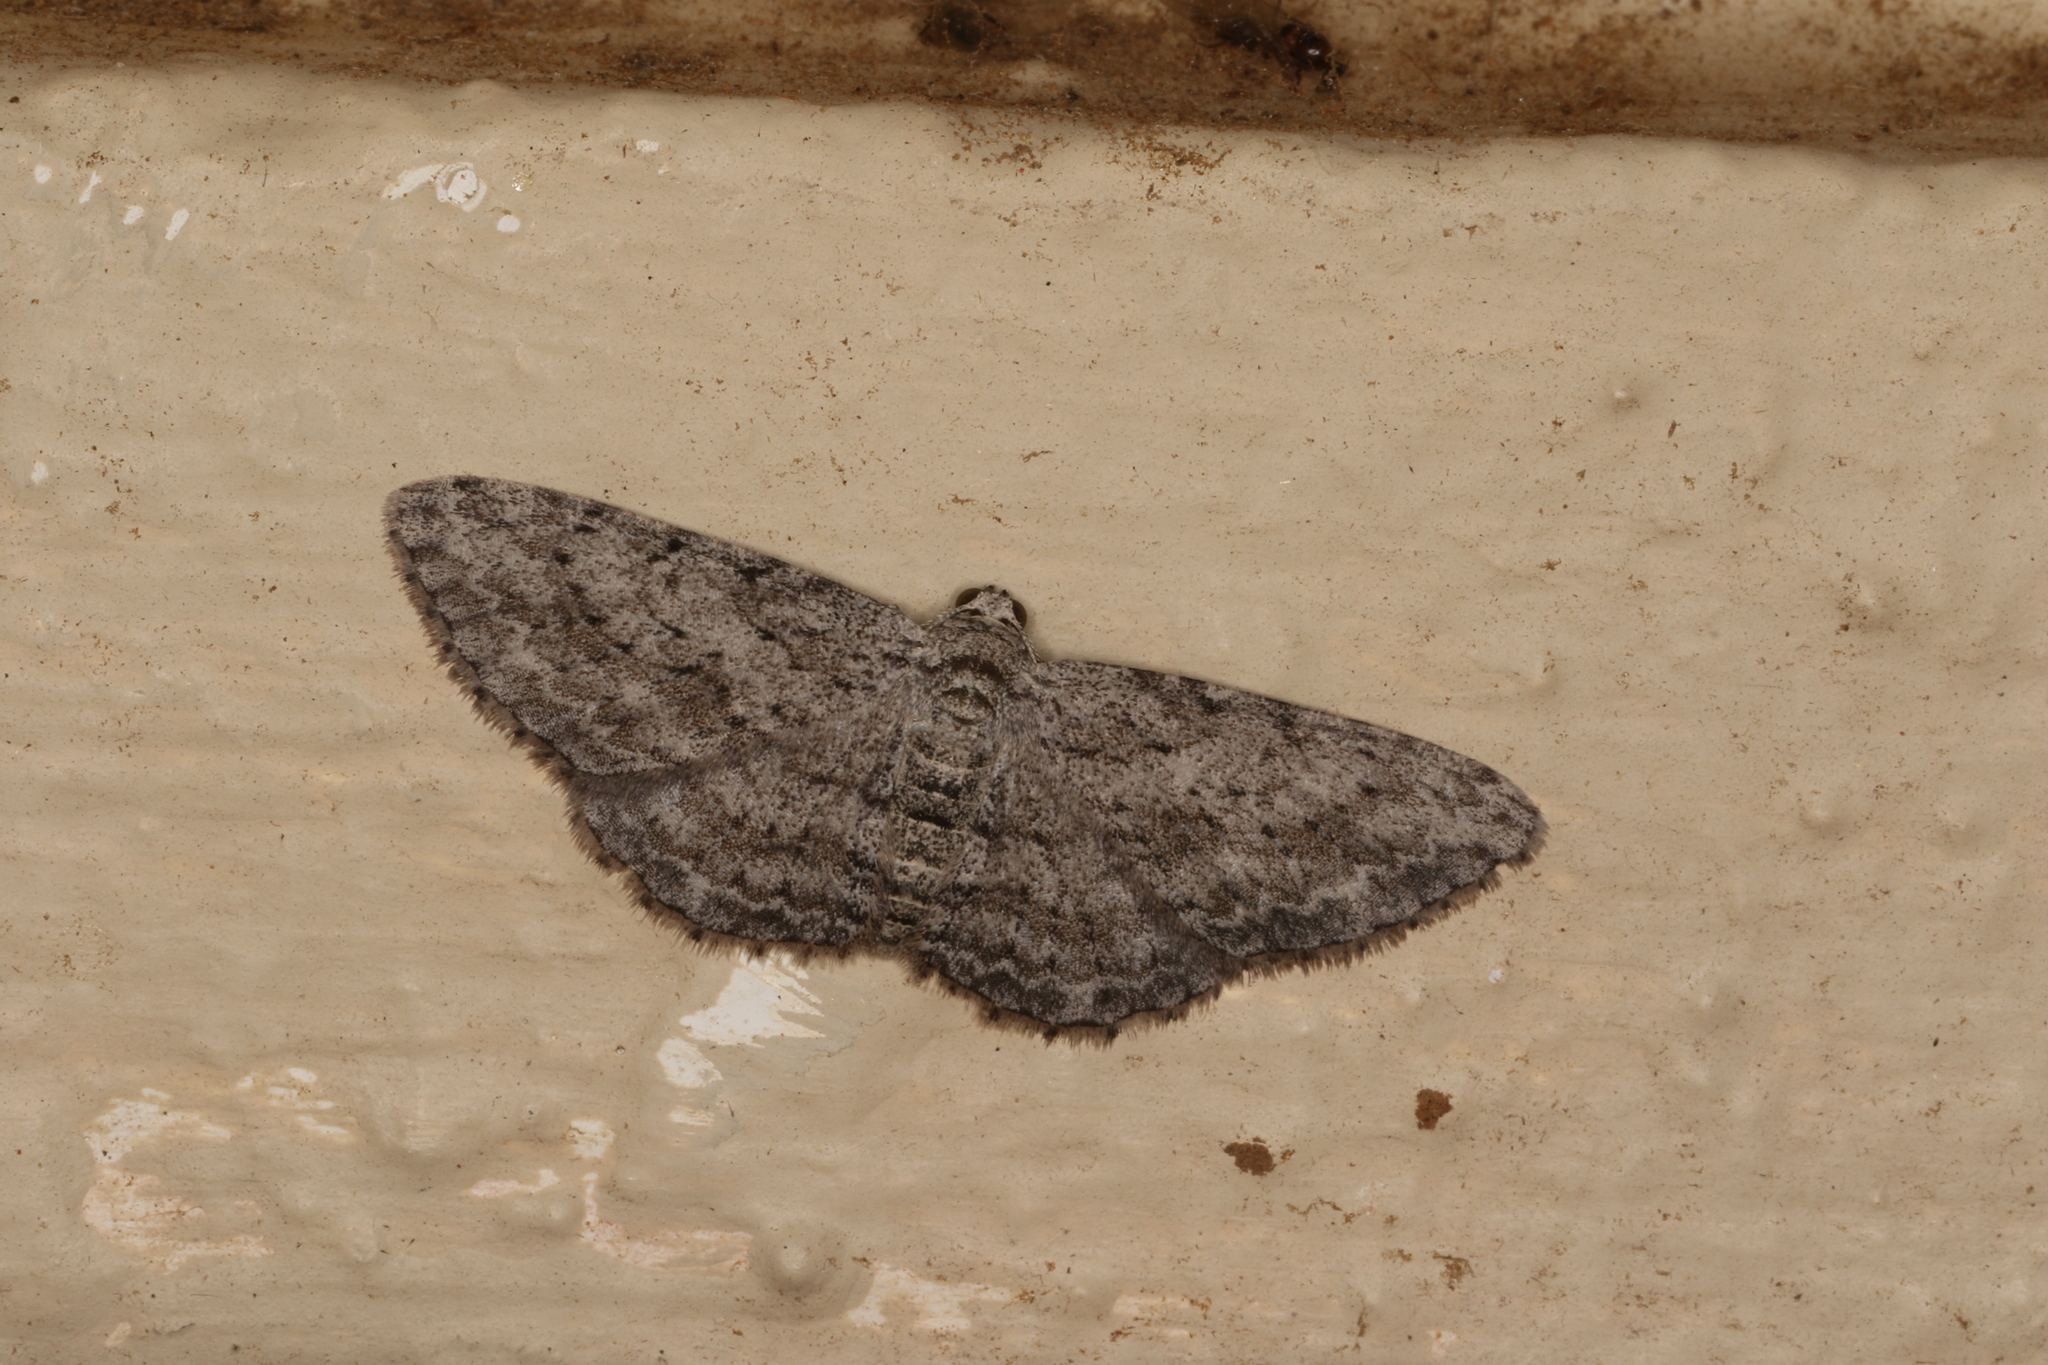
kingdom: Animalia
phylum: Arthropoda
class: Insecta
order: Lepidoptera
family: Geometridae
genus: Phelotis
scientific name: Phelotis cognata
